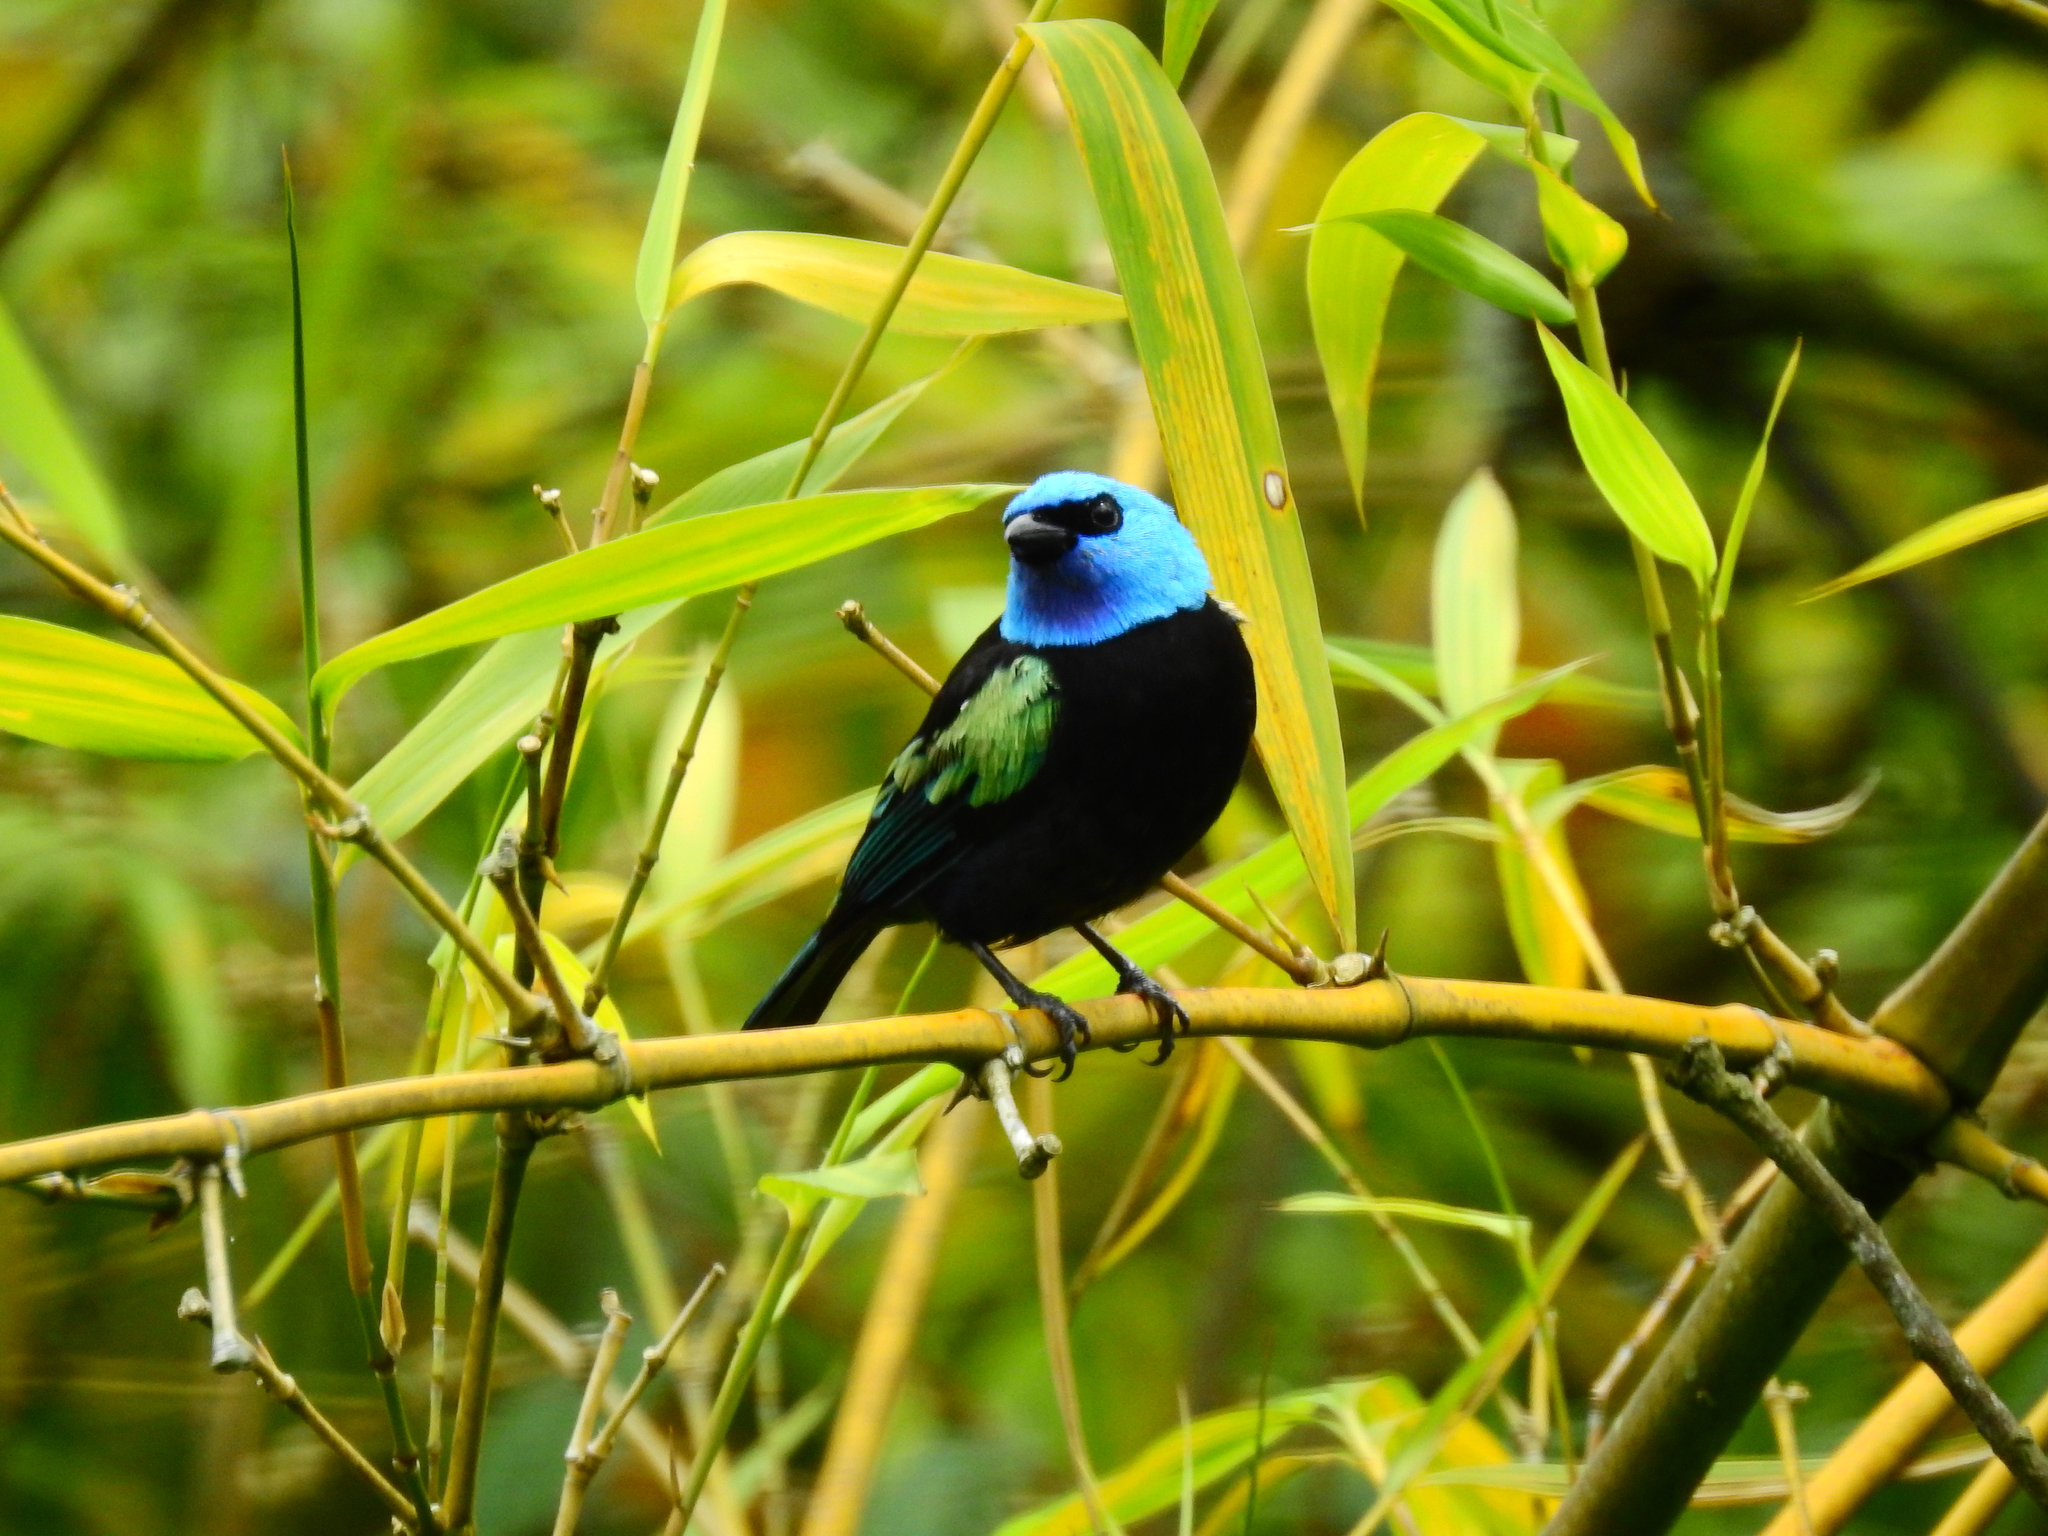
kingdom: Animalia
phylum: Chordata
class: Aves
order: Passeriformes
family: Thraupidae
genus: Stilpnia
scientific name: Stilpnia cyanicollis
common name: Blue-necked tanager
